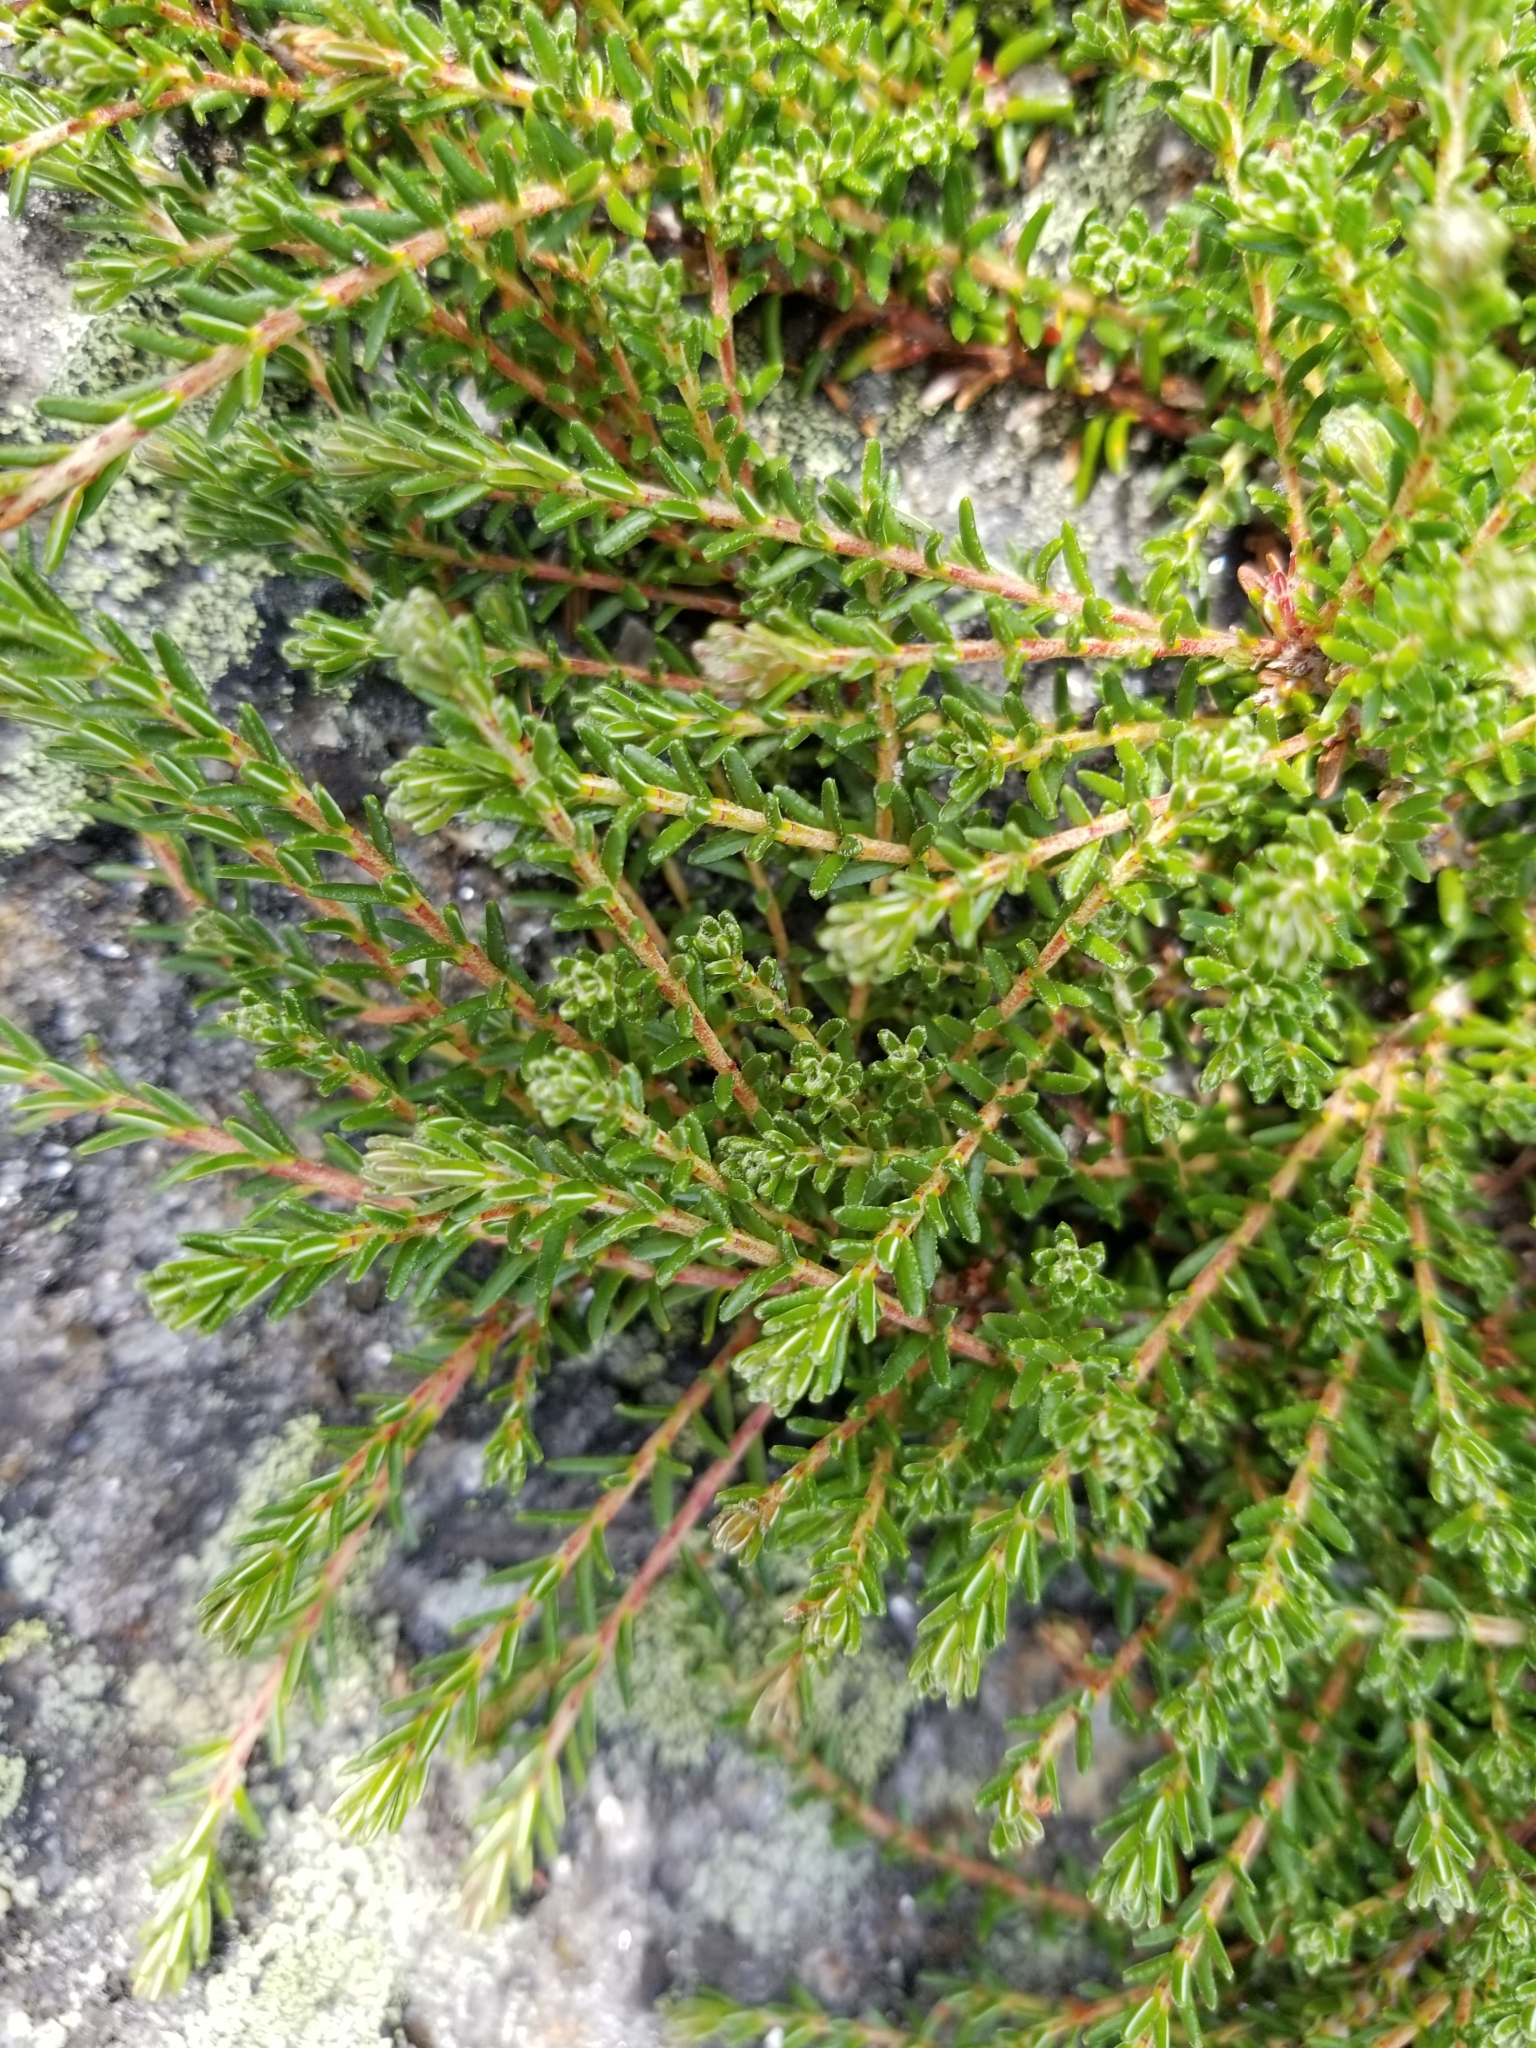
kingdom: Plantae
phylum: Tracheophyta
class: Magnoliopsida
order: Ericales
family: Ericaceae
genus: Empetrum
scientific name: Empetrum nigrum
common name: Black crowberry
